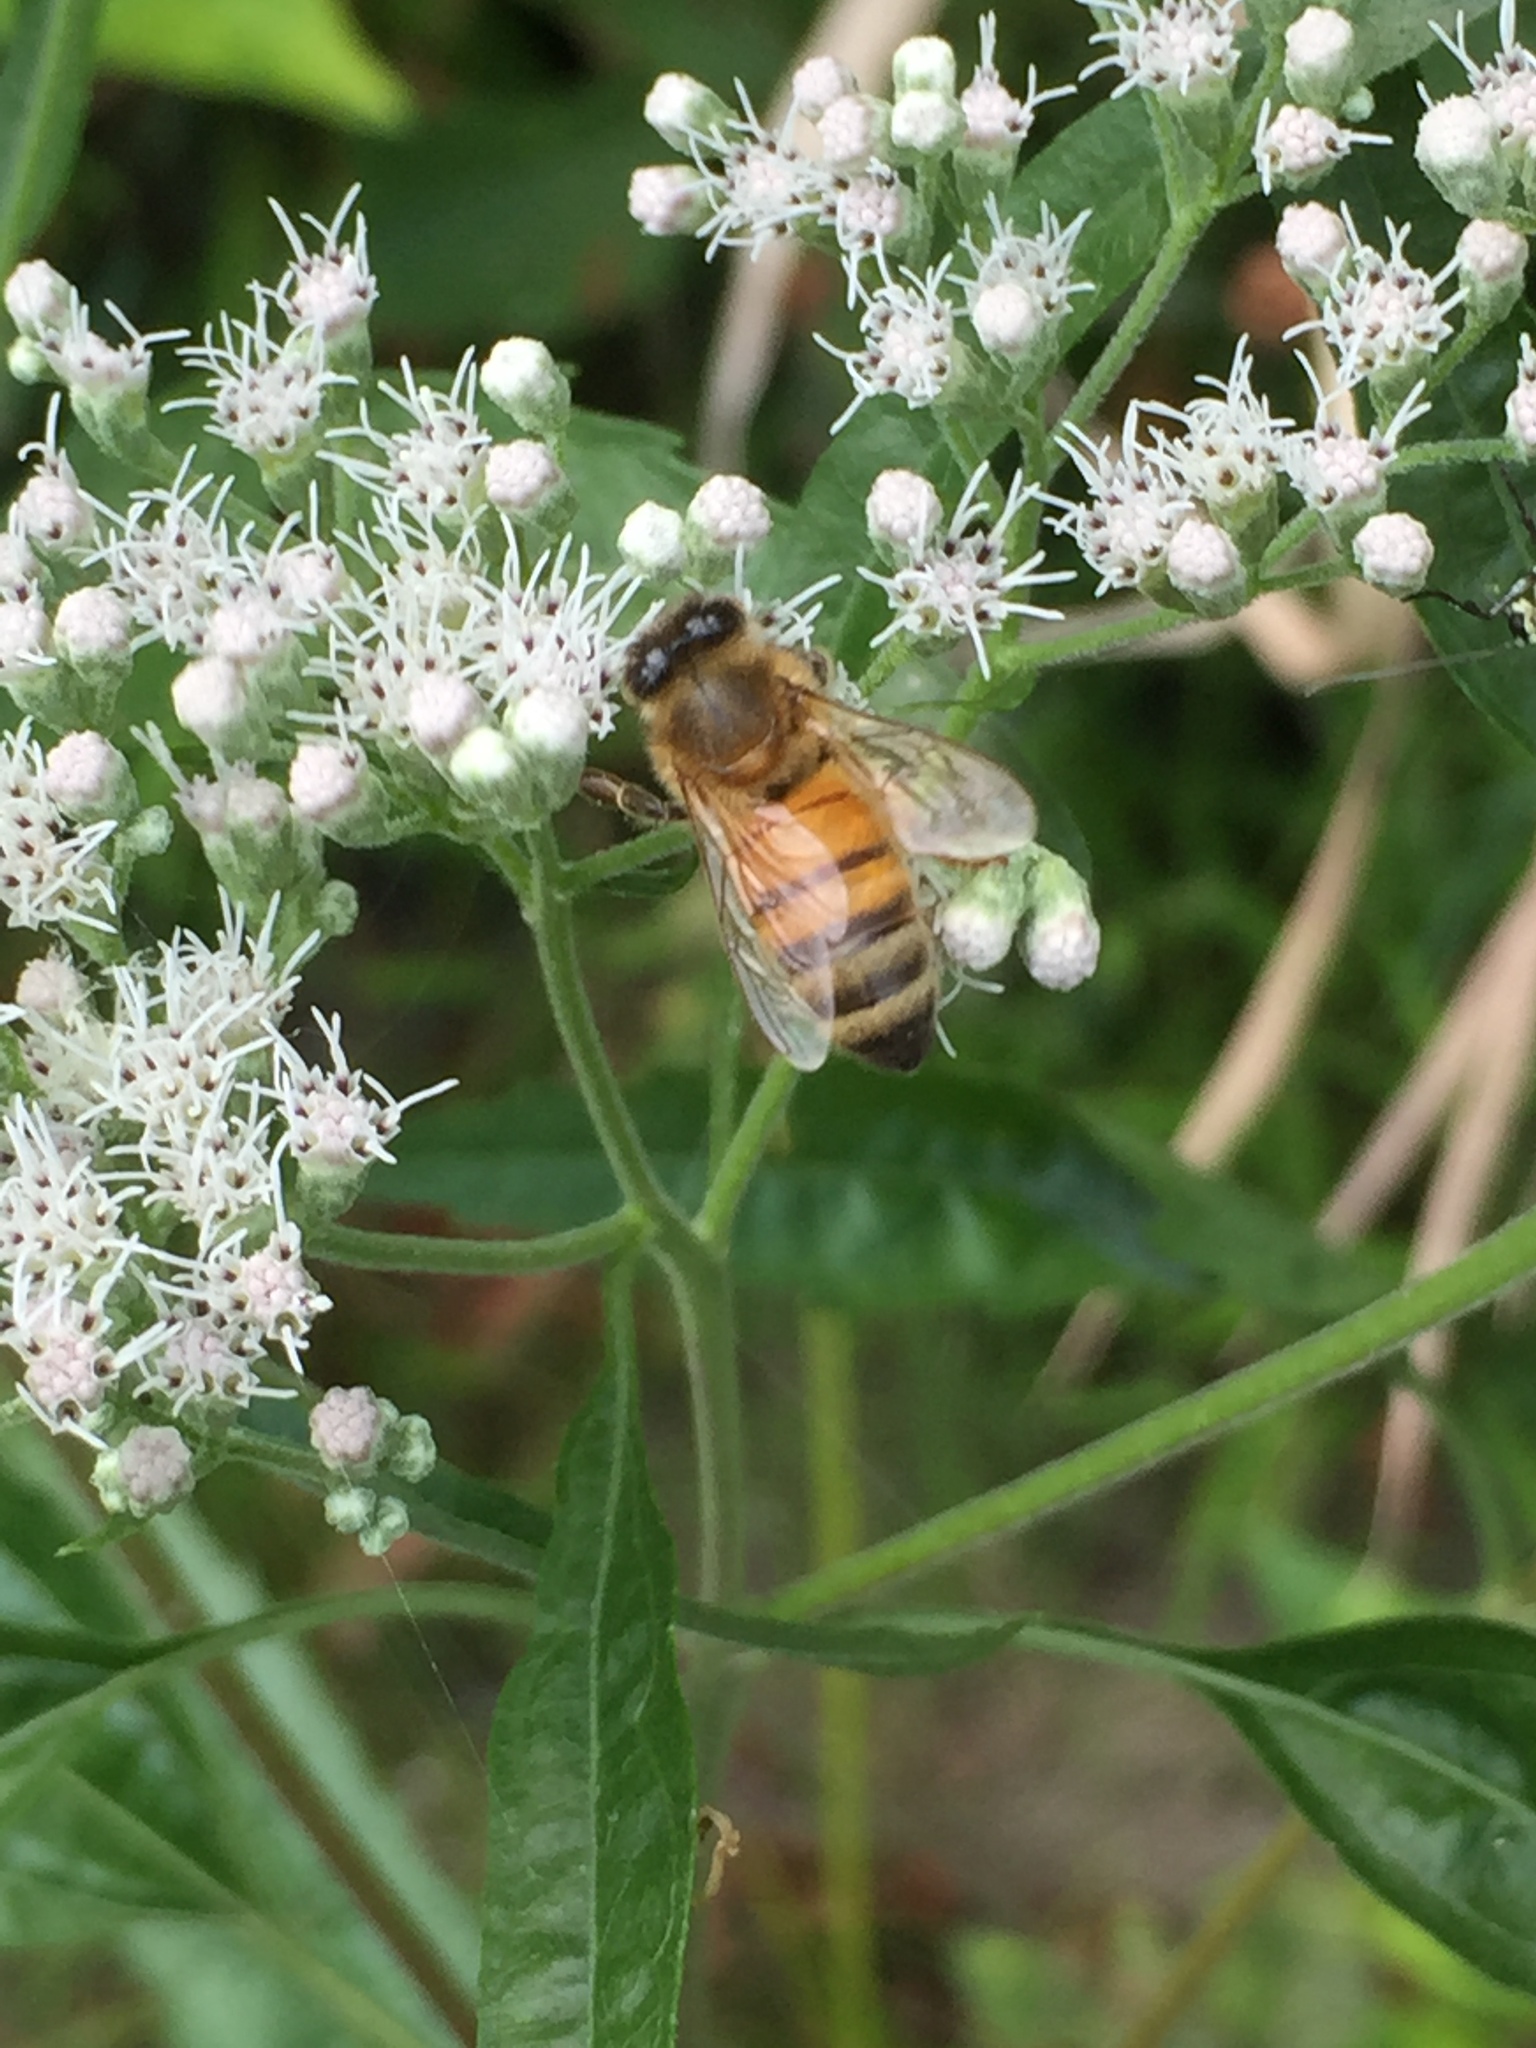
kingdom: Animalia
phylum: Arthropoda
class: Insecta
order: Hymenoptera
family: Apidae
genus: Apis
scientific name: Apis mellifera
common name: Honey bee
